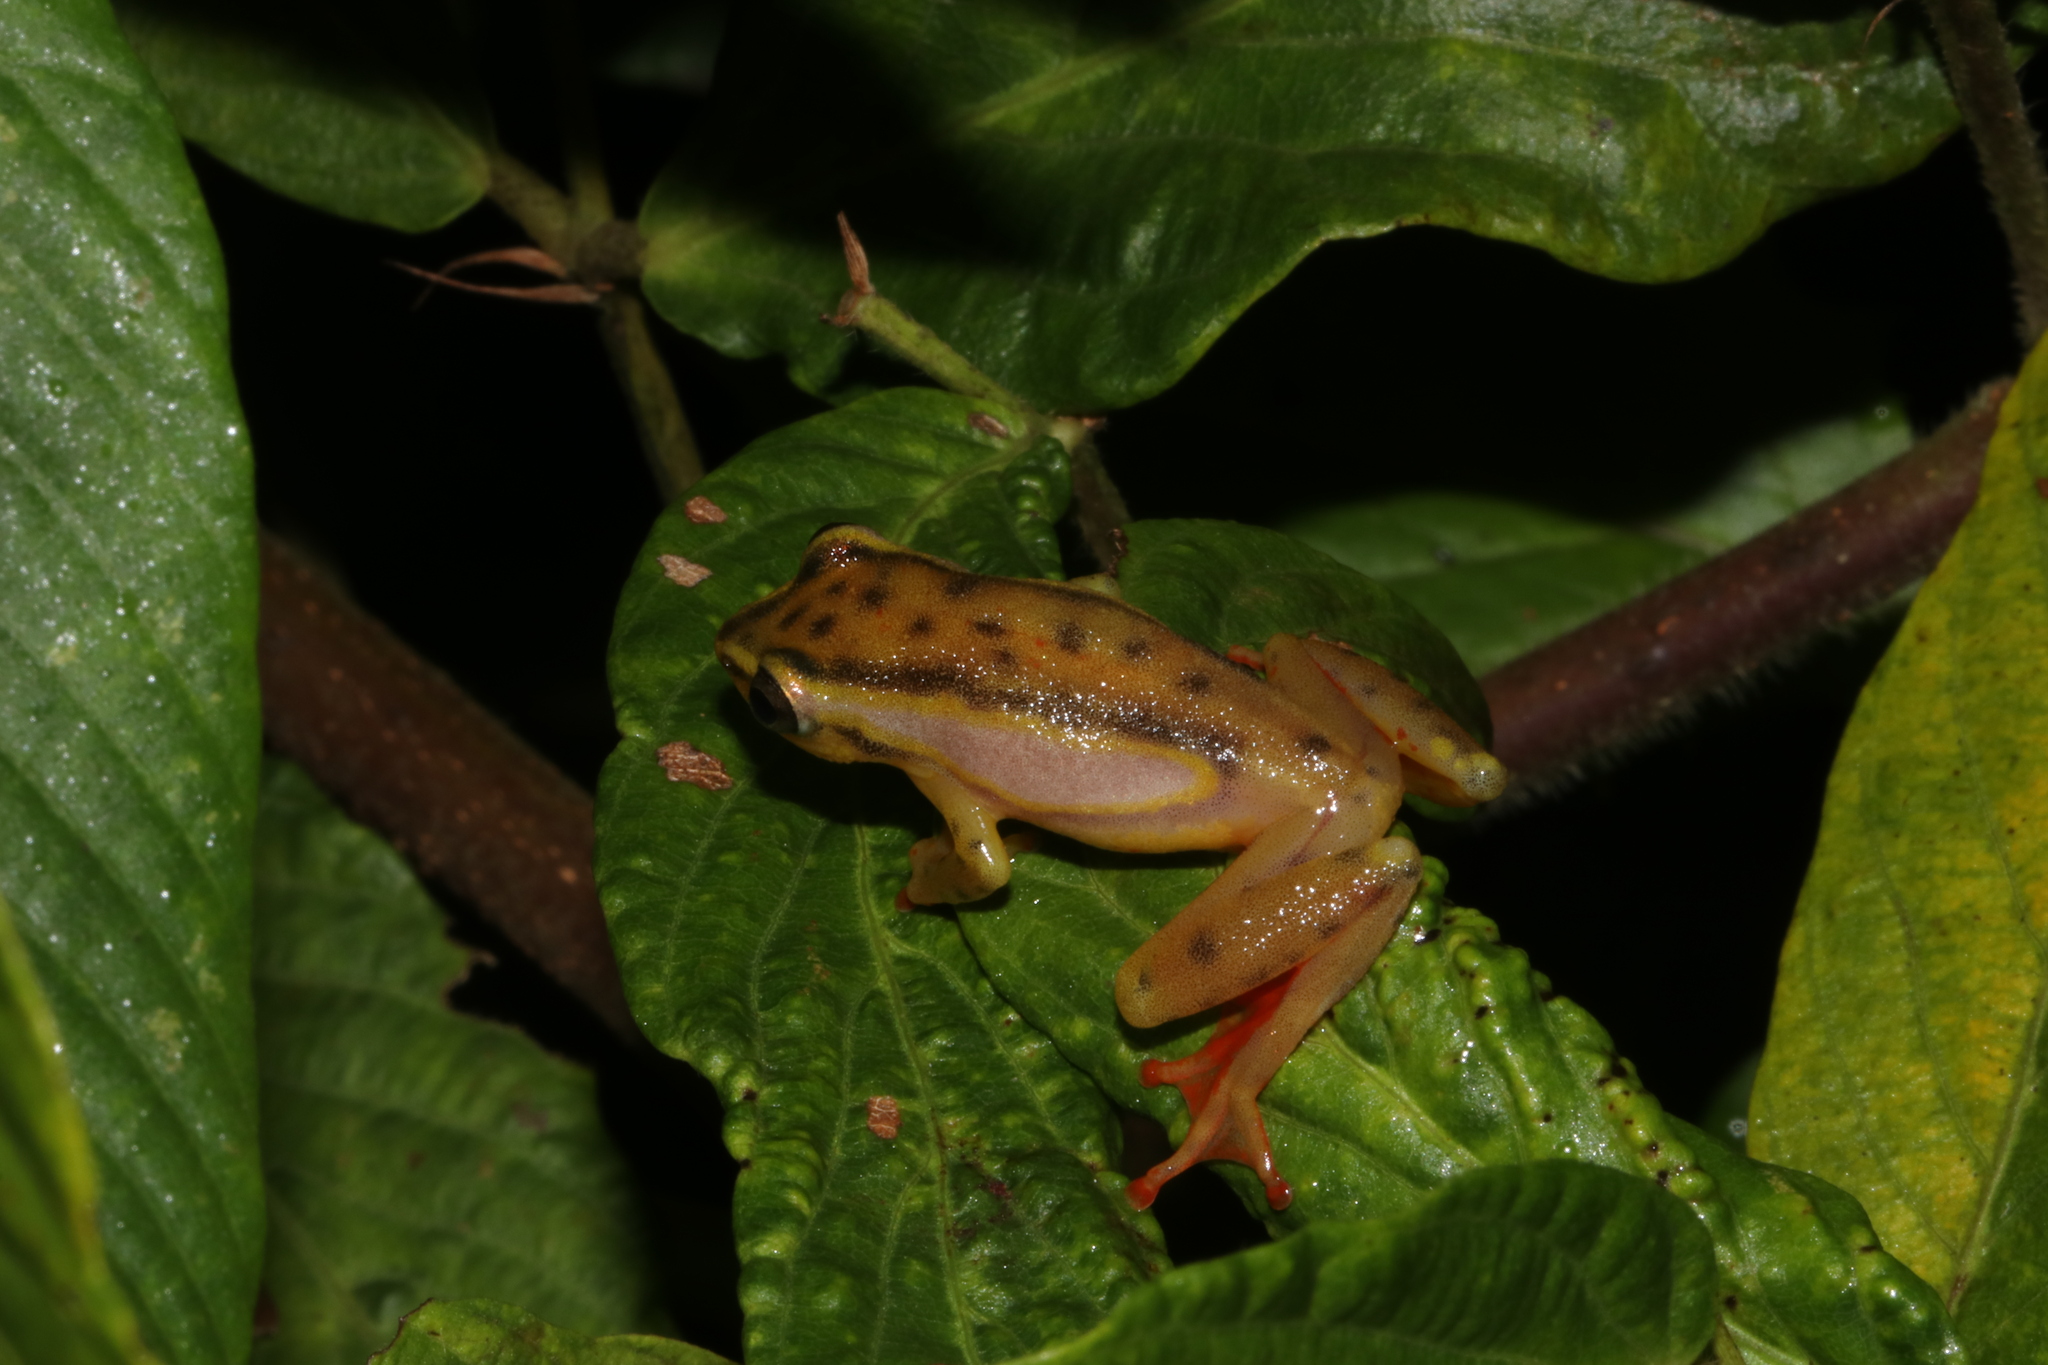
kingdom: Animalia
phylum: Chordata
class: Amphibia
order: Anura
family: Hyperoliidae
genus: Hyperolius
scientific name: Hyperolius mitchelli
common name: Mitchell's reed frog
